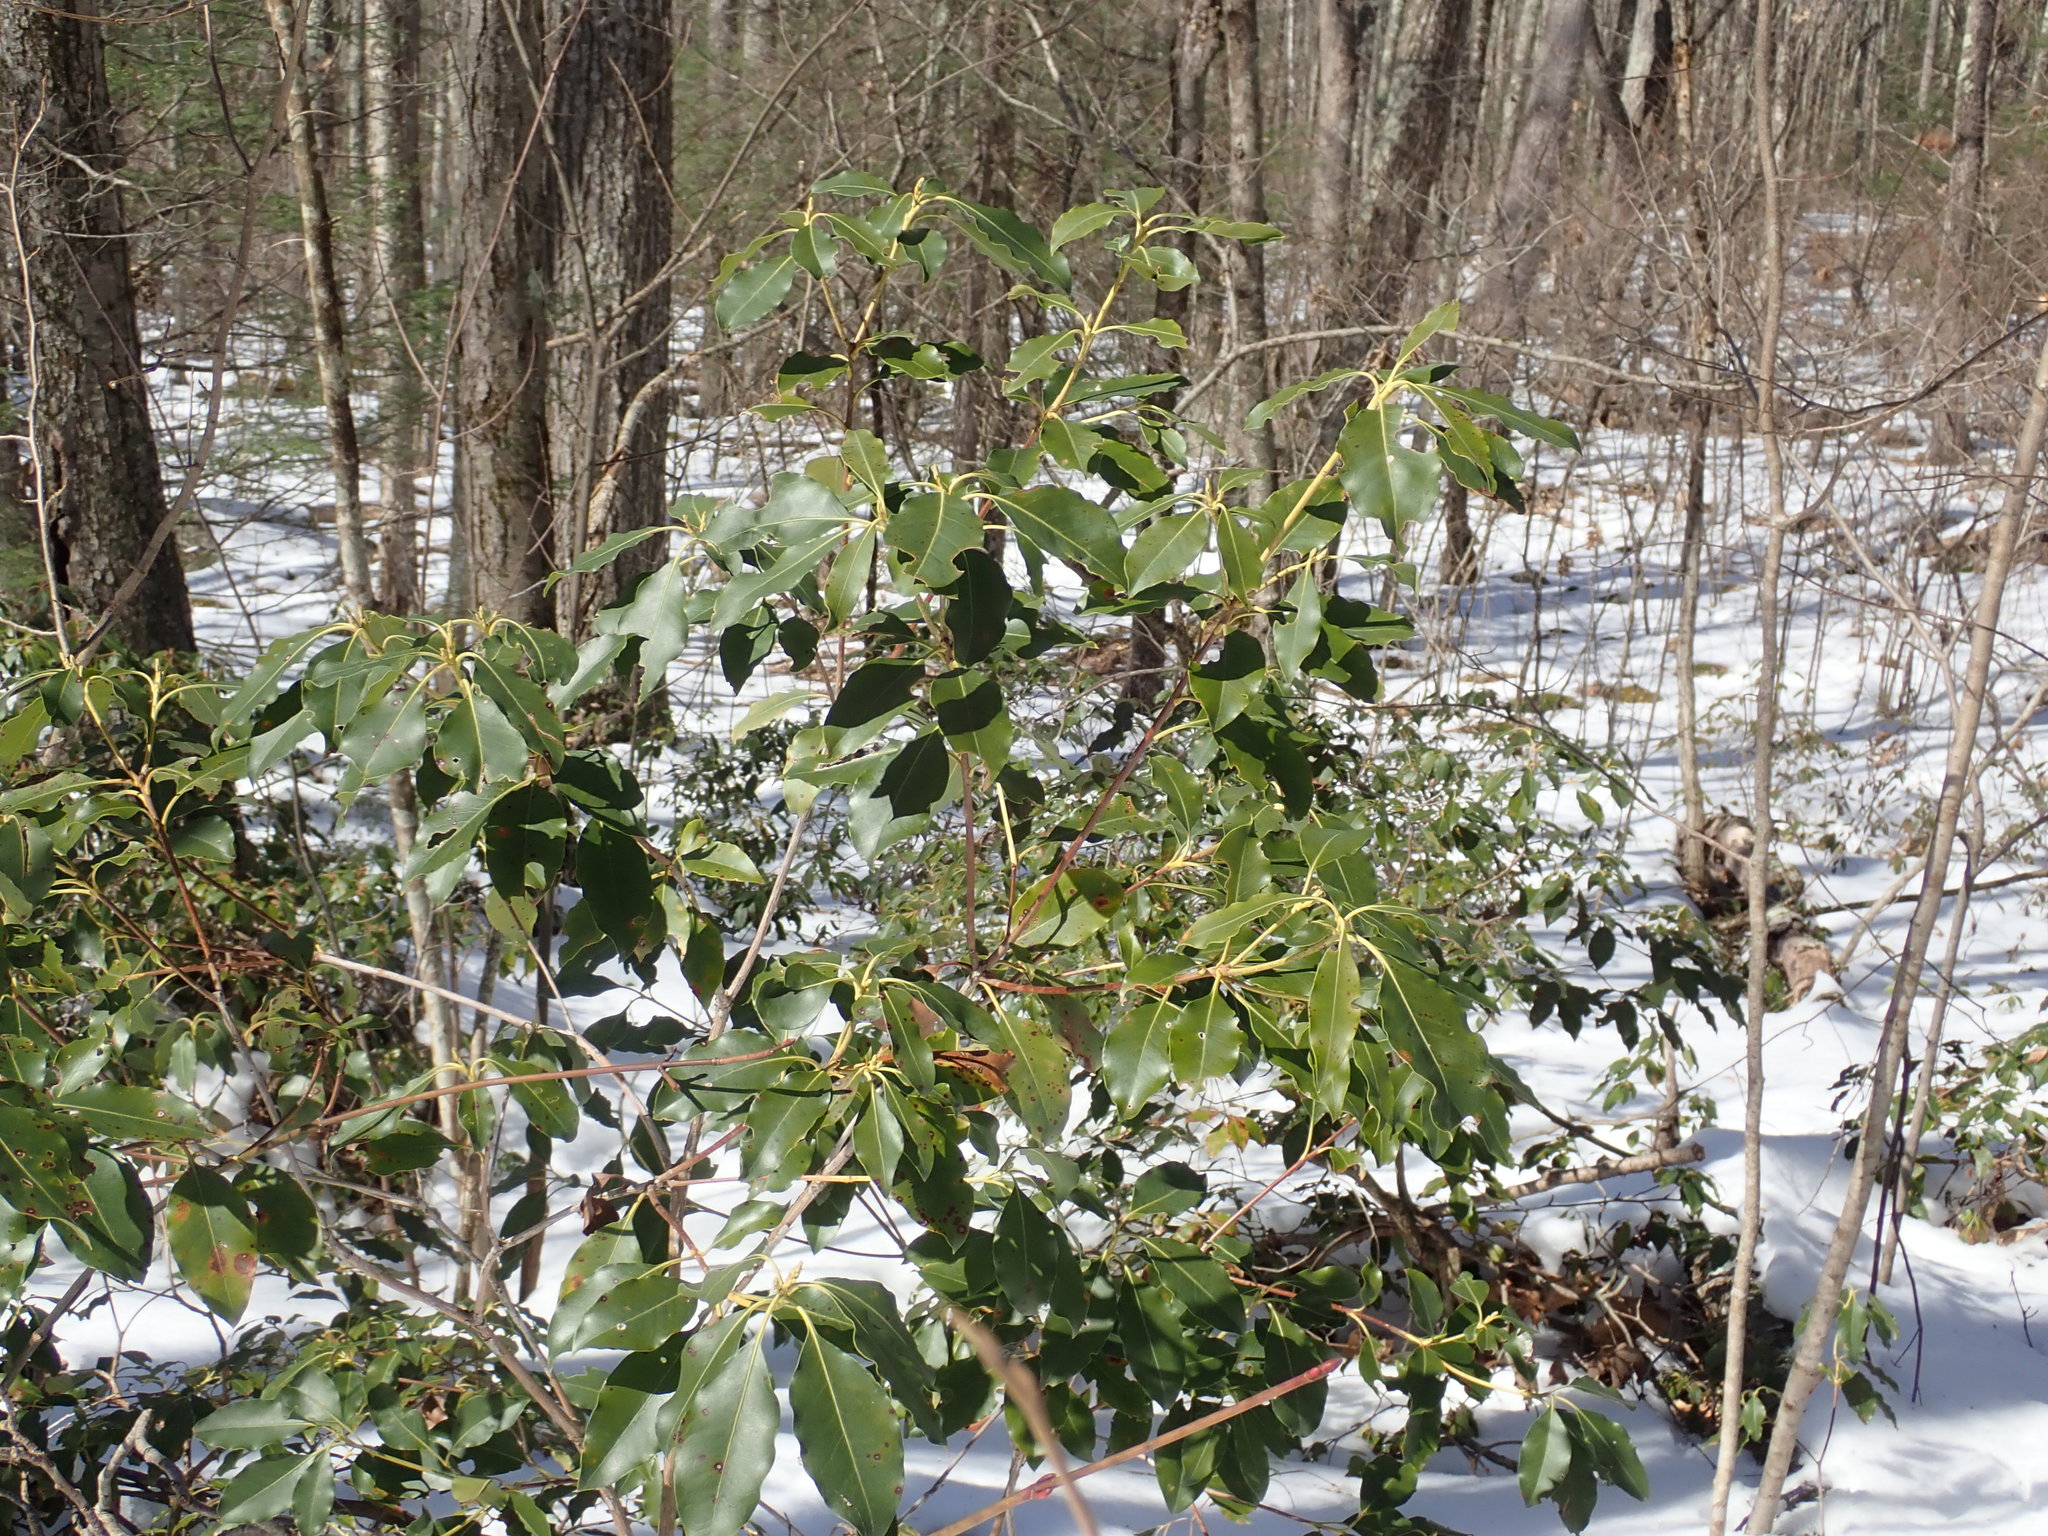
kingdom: Plantae
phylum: Tracheophyta
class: Magnoliopsida
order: Ericales
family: Ericaceae
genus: Kalmia
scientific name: Kalmia latifolia
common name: Mountain-laurel
